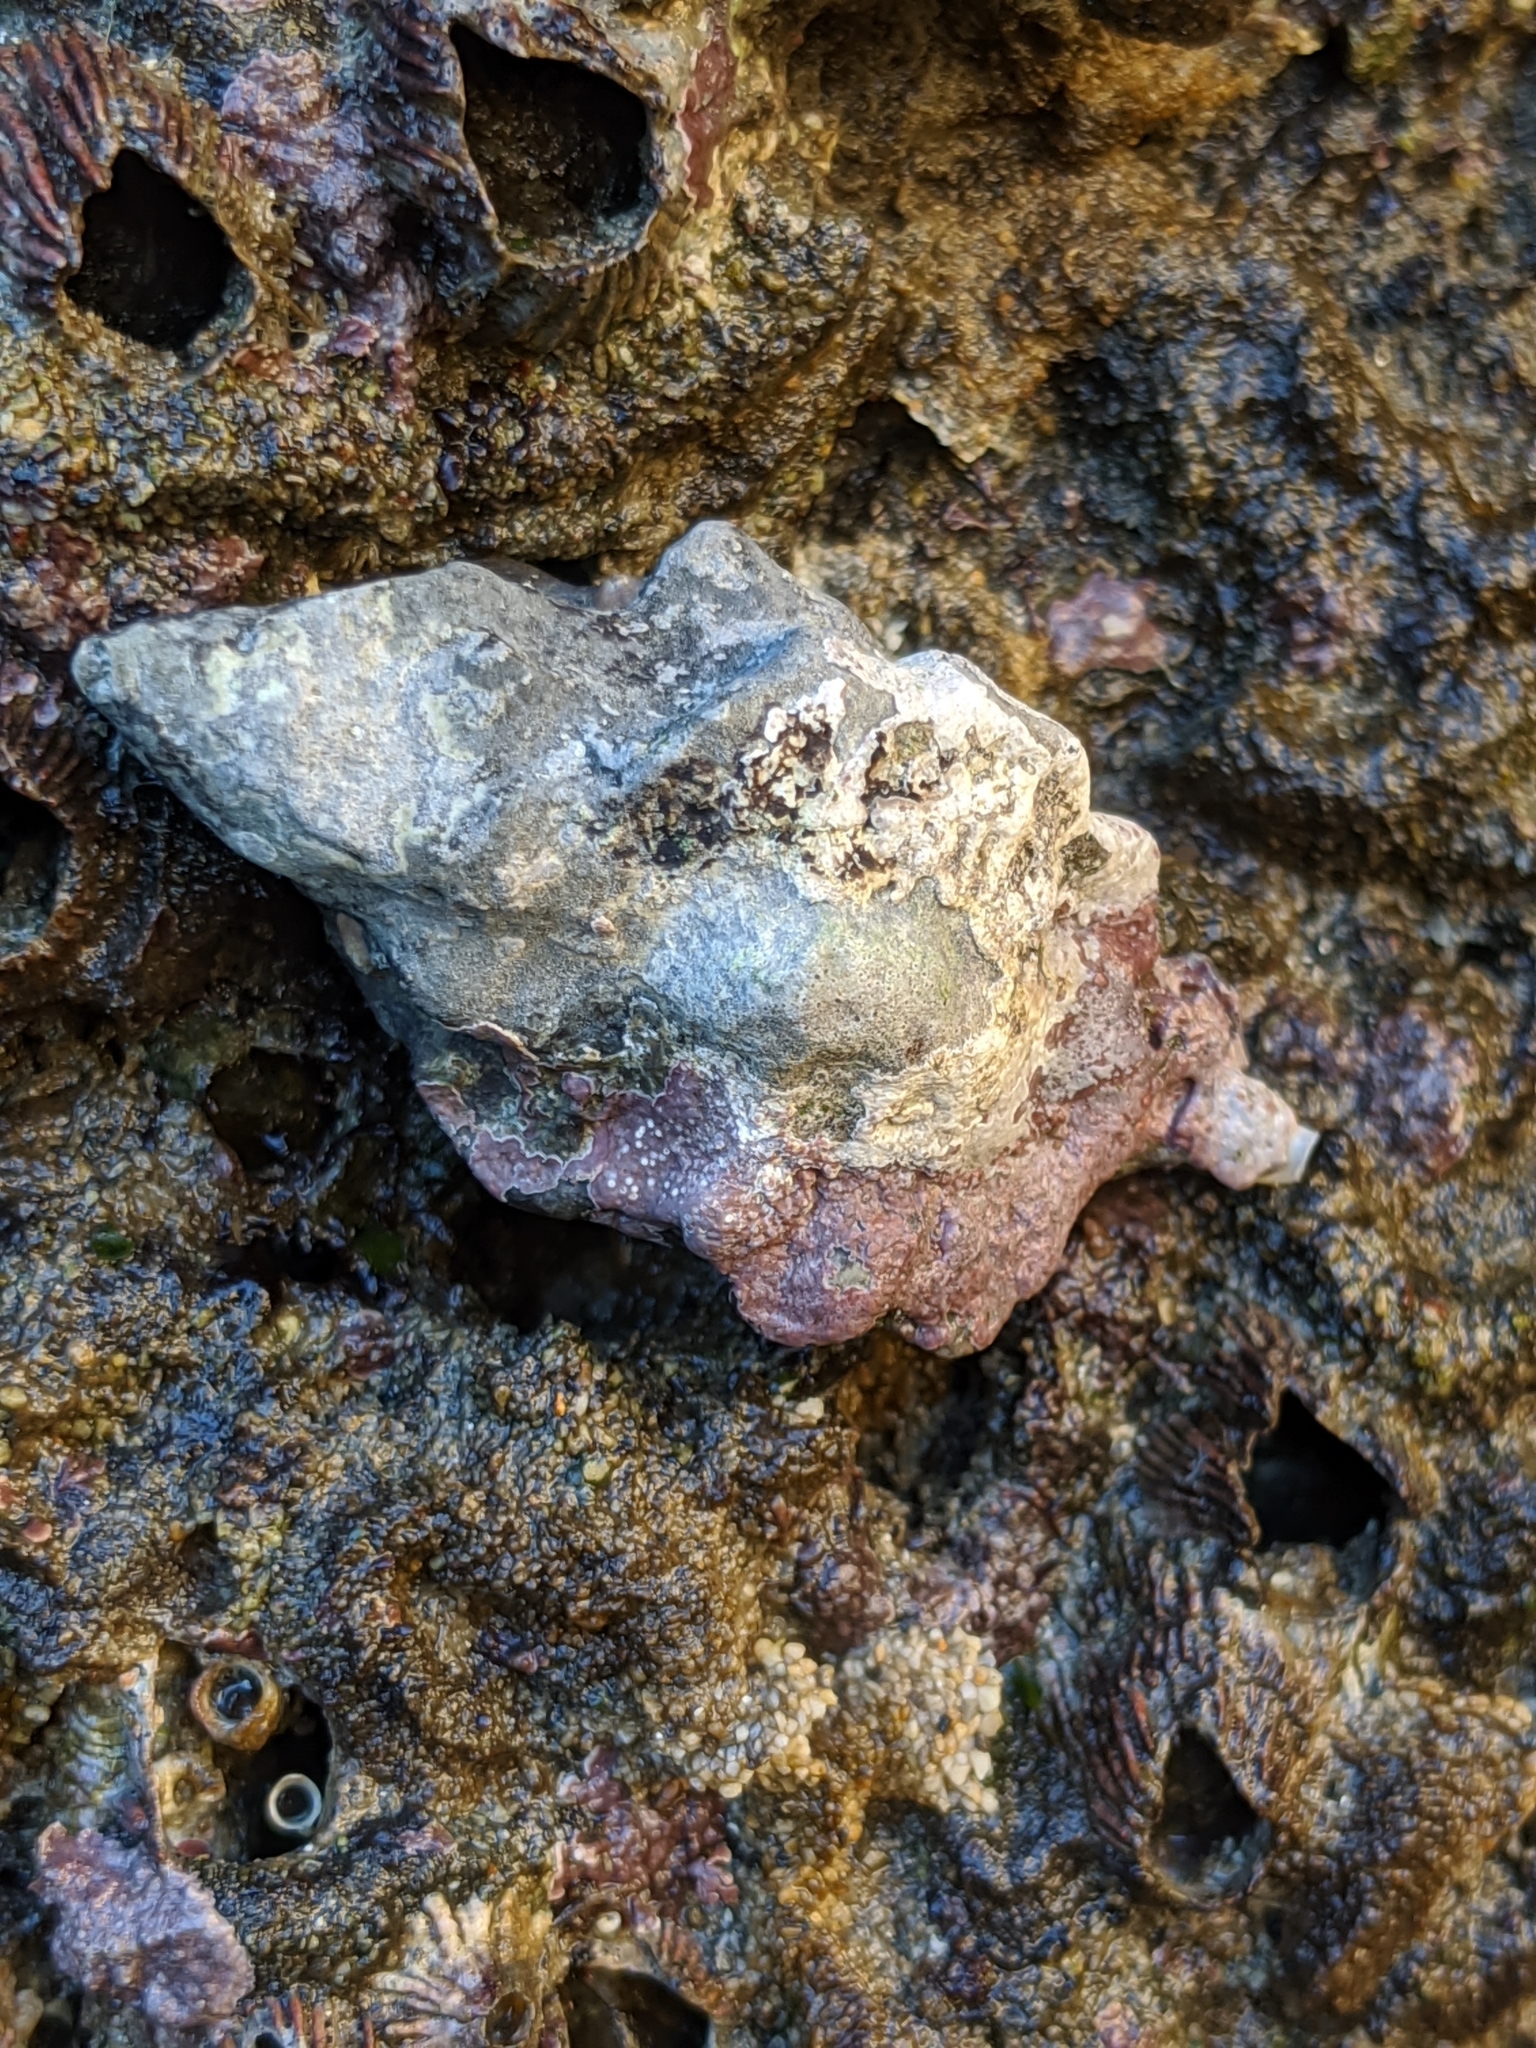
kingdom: Animalia
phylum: Mollusca
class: Gastropoda
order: Neogastropoda
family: Muricidae
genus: Ceratostoma
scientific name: Ceratostoma nuttalli
